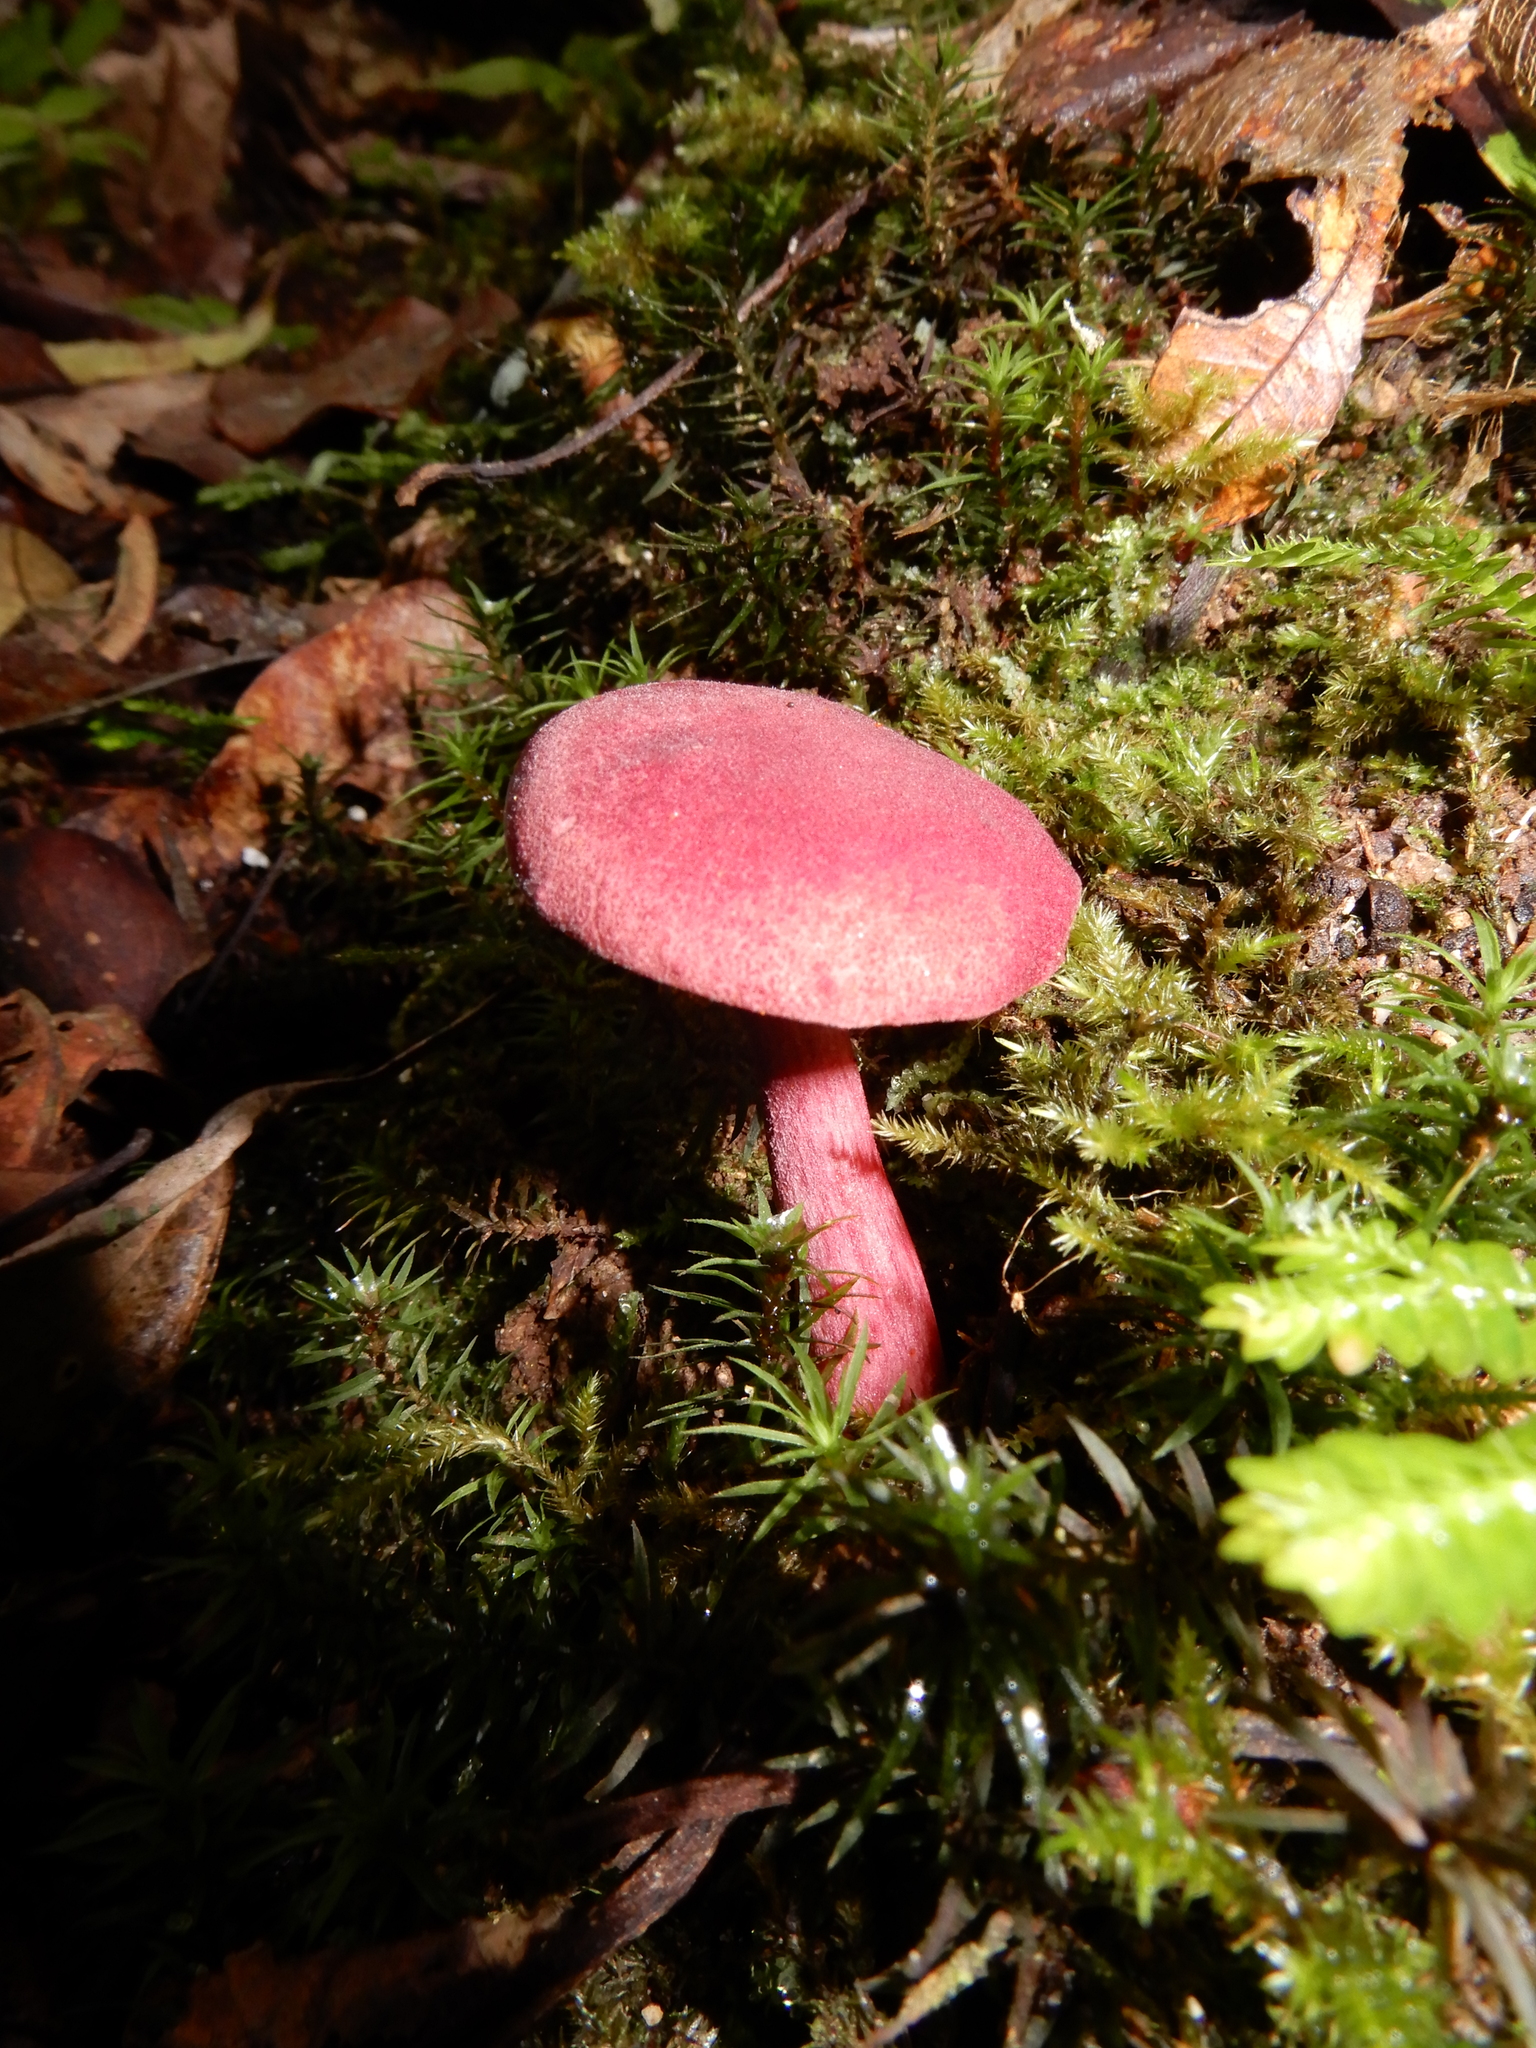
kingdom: Fungi
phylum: Basidiomycota
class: Agaricomycetes
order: Boletales
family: Boletaceae
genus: Boletellus
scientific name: Boletellus obscurecoccineus
